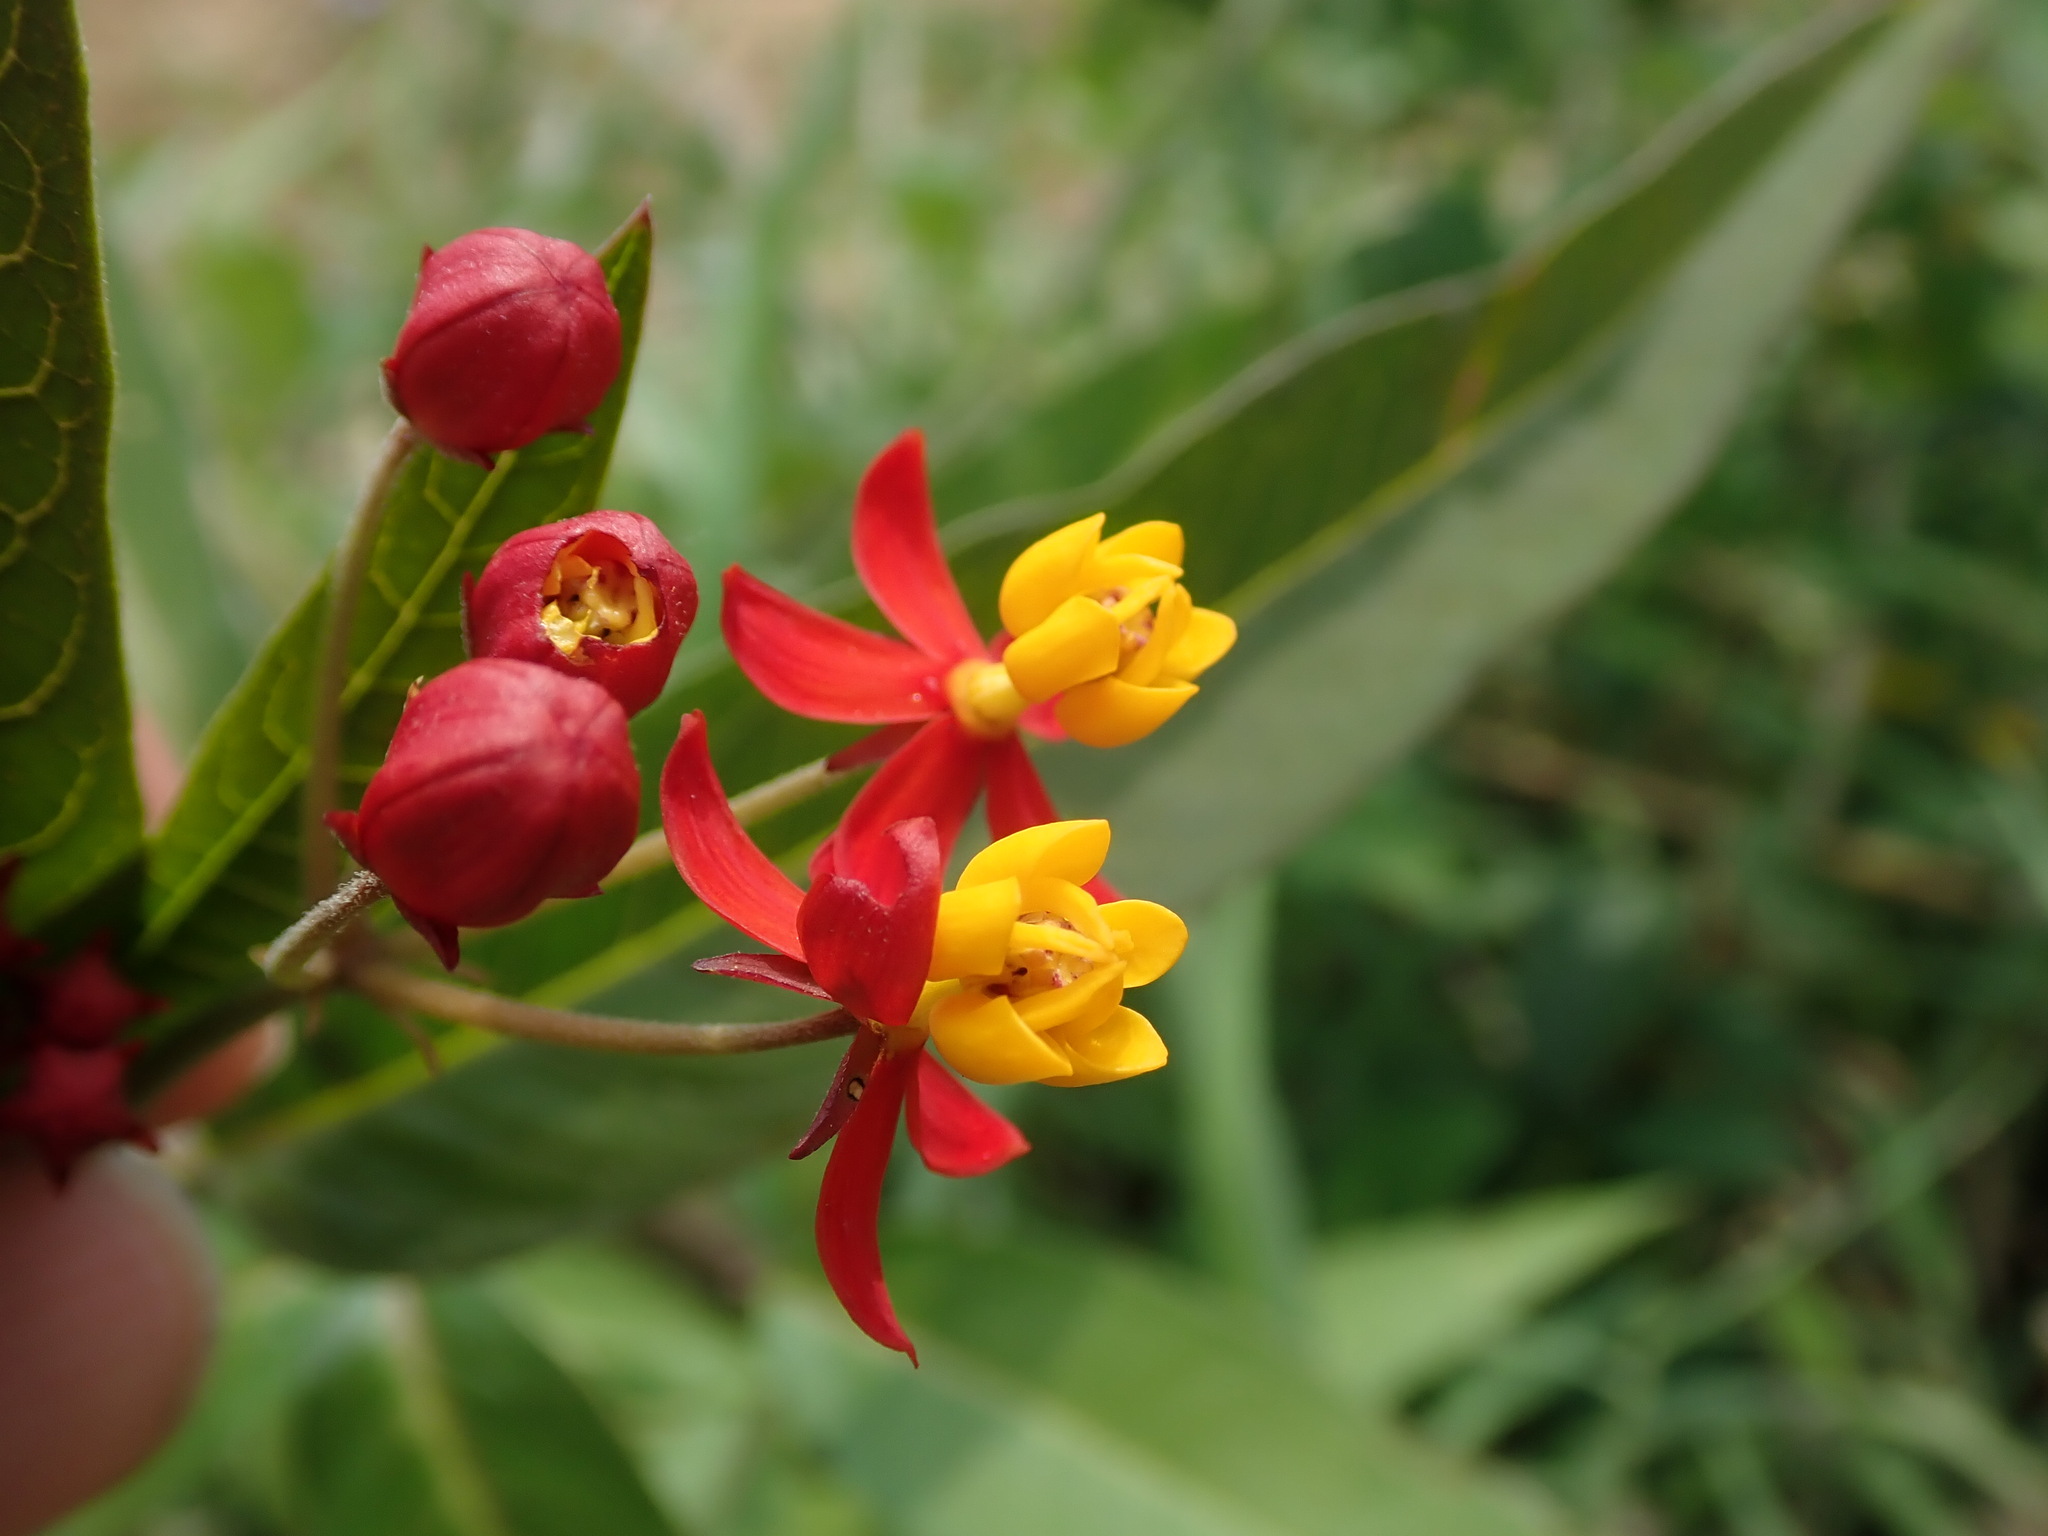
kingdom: Plantae
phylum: Tracheophyta
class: Magnoliopsida
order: Gentianales
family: Apocynaceae
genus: Asclepias
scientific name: Asclepias curassavica
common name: Bloodflower
